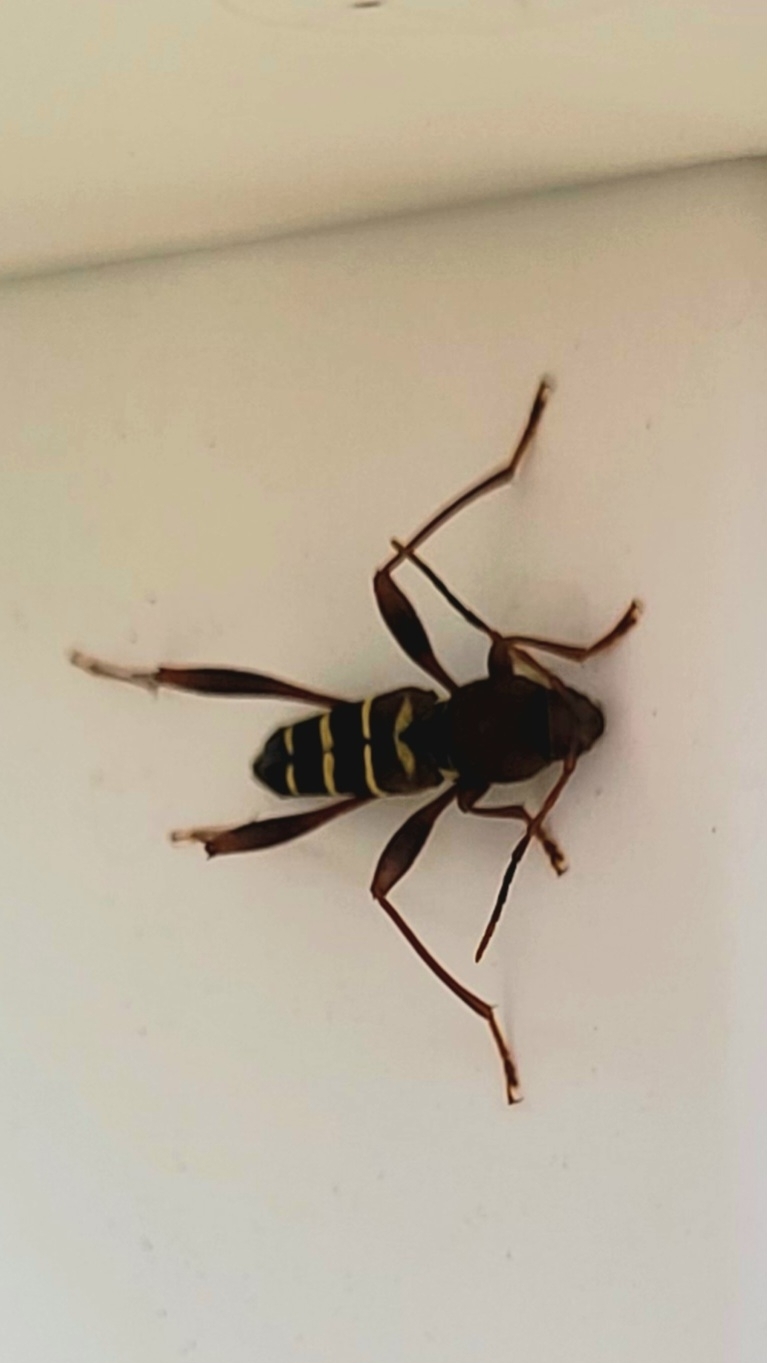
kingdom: Animalia
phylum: Arthropoda
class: Insecta
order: Coleoptera
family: Cerambycidae
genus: Neoclytus
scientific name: Neoclytus acuminatus
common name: Read-headed ash borer
